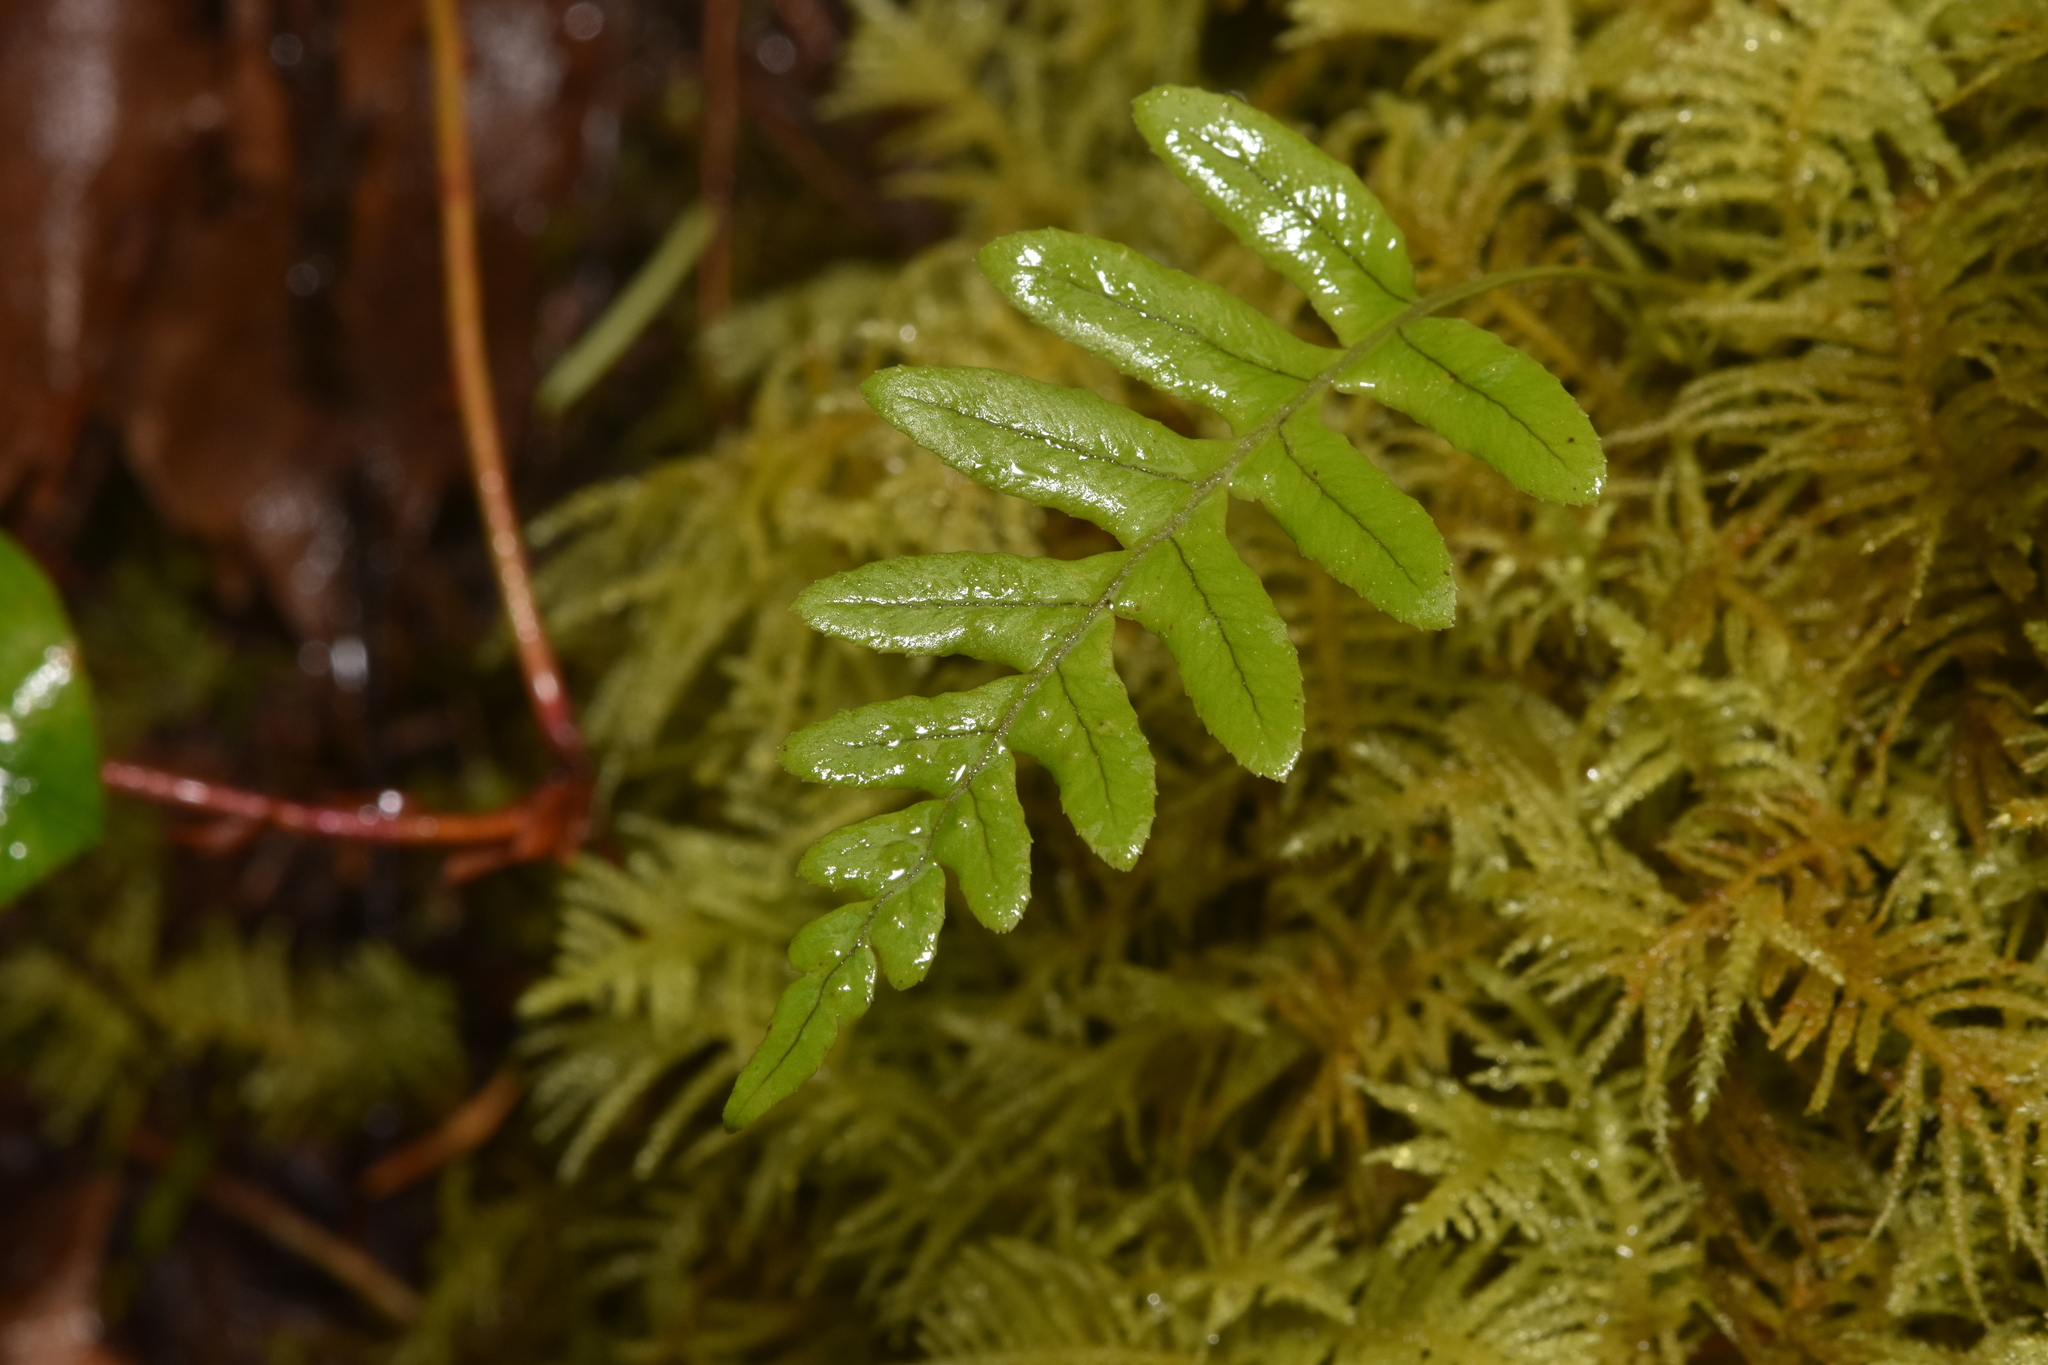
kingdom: Plantae
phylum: Tracheophyta
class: Polypodiopsida
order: Polypodiales
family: Polypodiaceae
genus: Polypodium
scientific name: Polypodium glycyrrhiza
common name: Licorice fern
